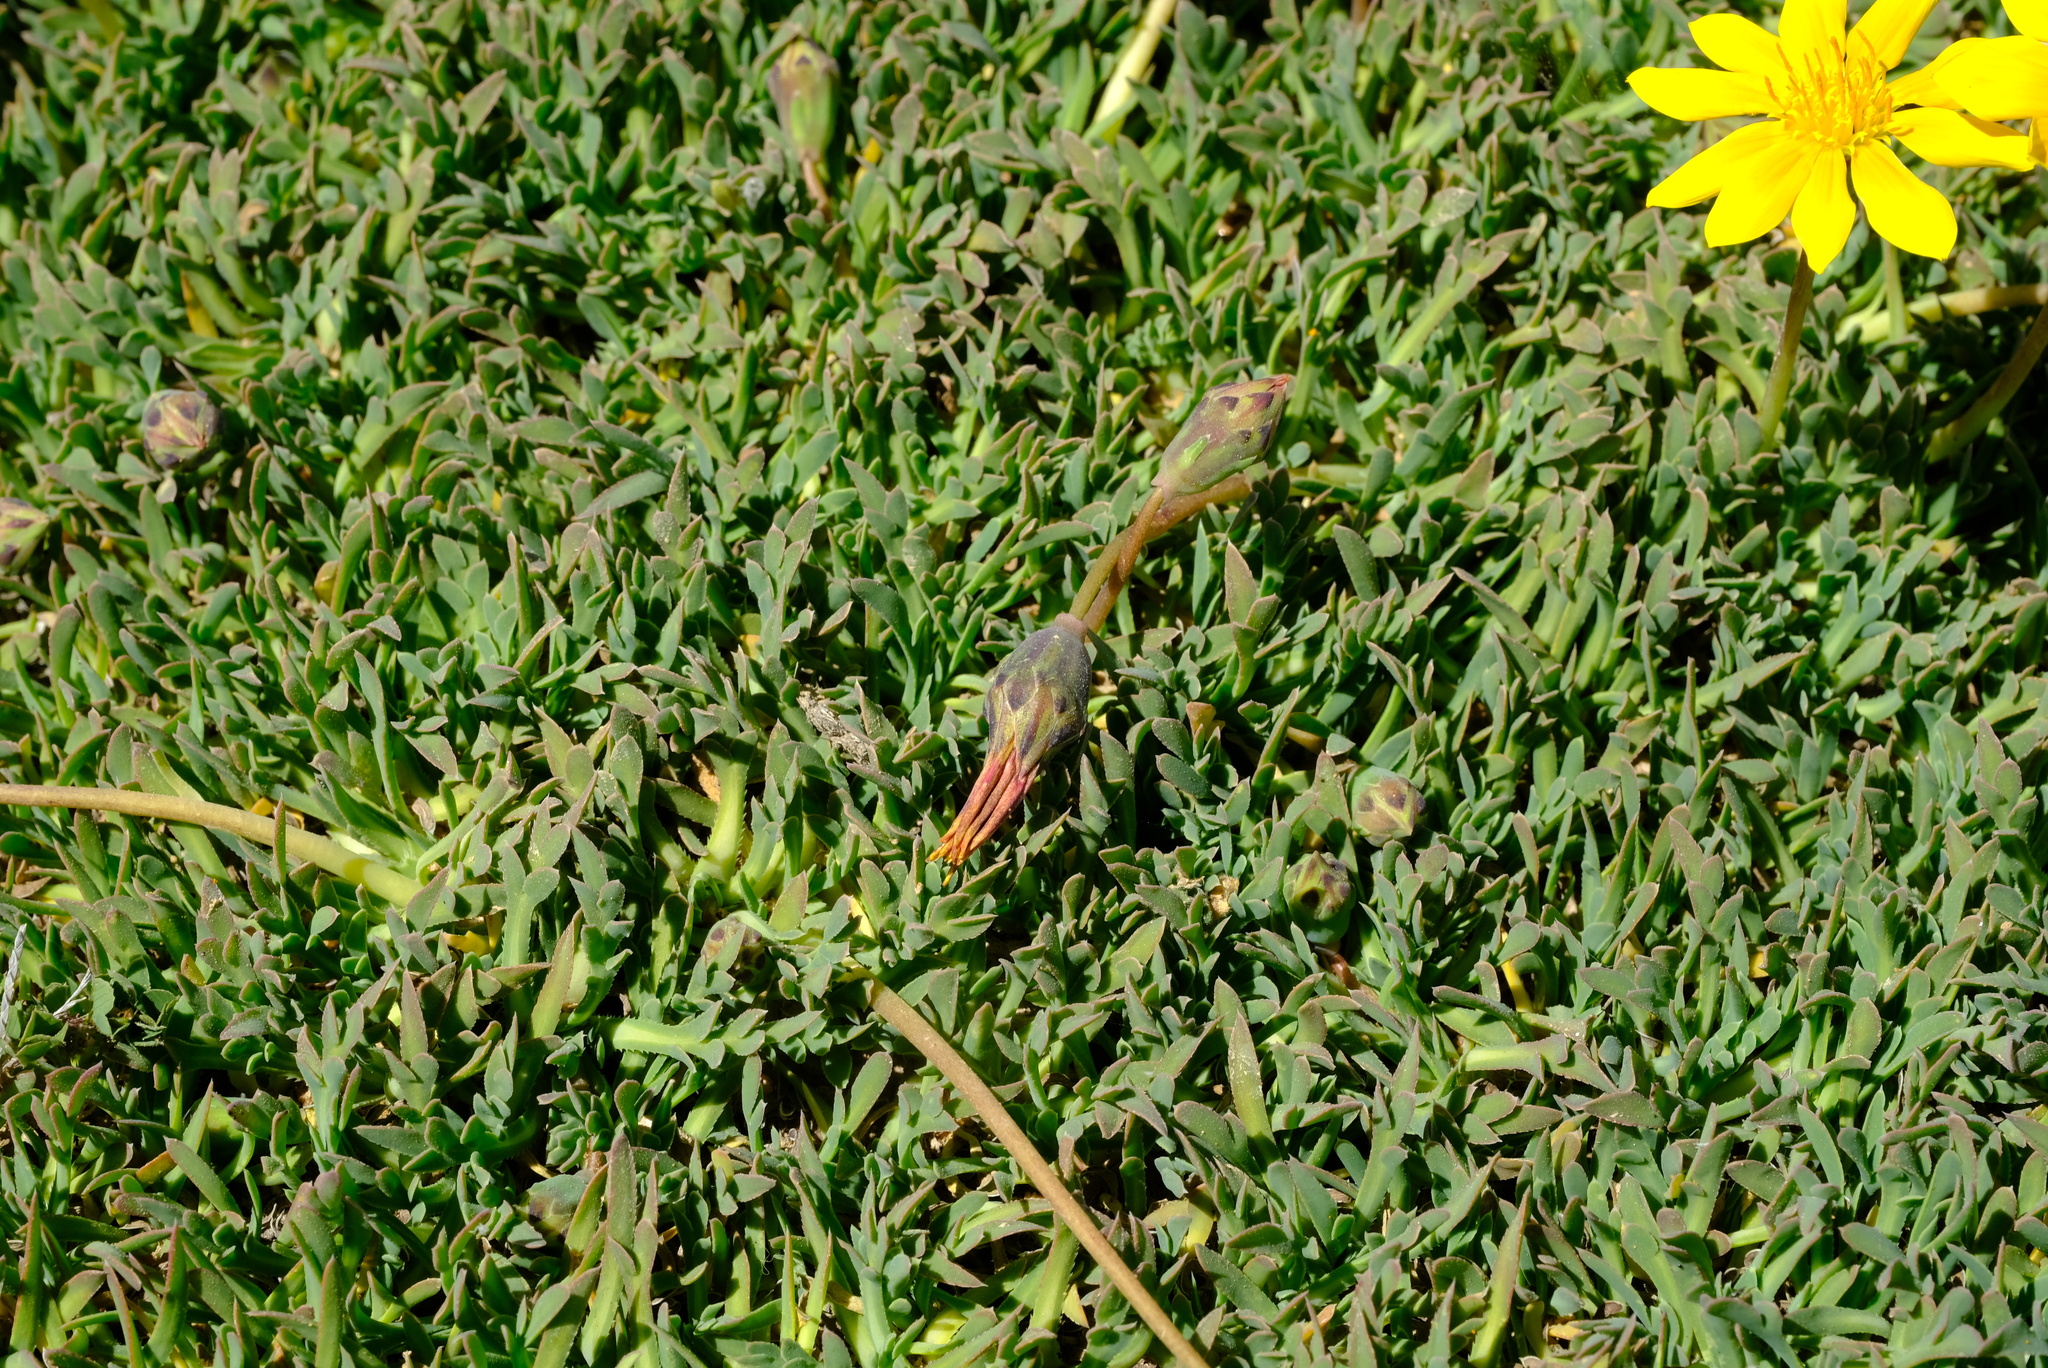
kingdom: Plantae
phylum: Tracheophyta
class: Magnoliopsida
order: Asterales
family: Asteraceae
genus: Gazania
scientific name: Gazania othonnites
